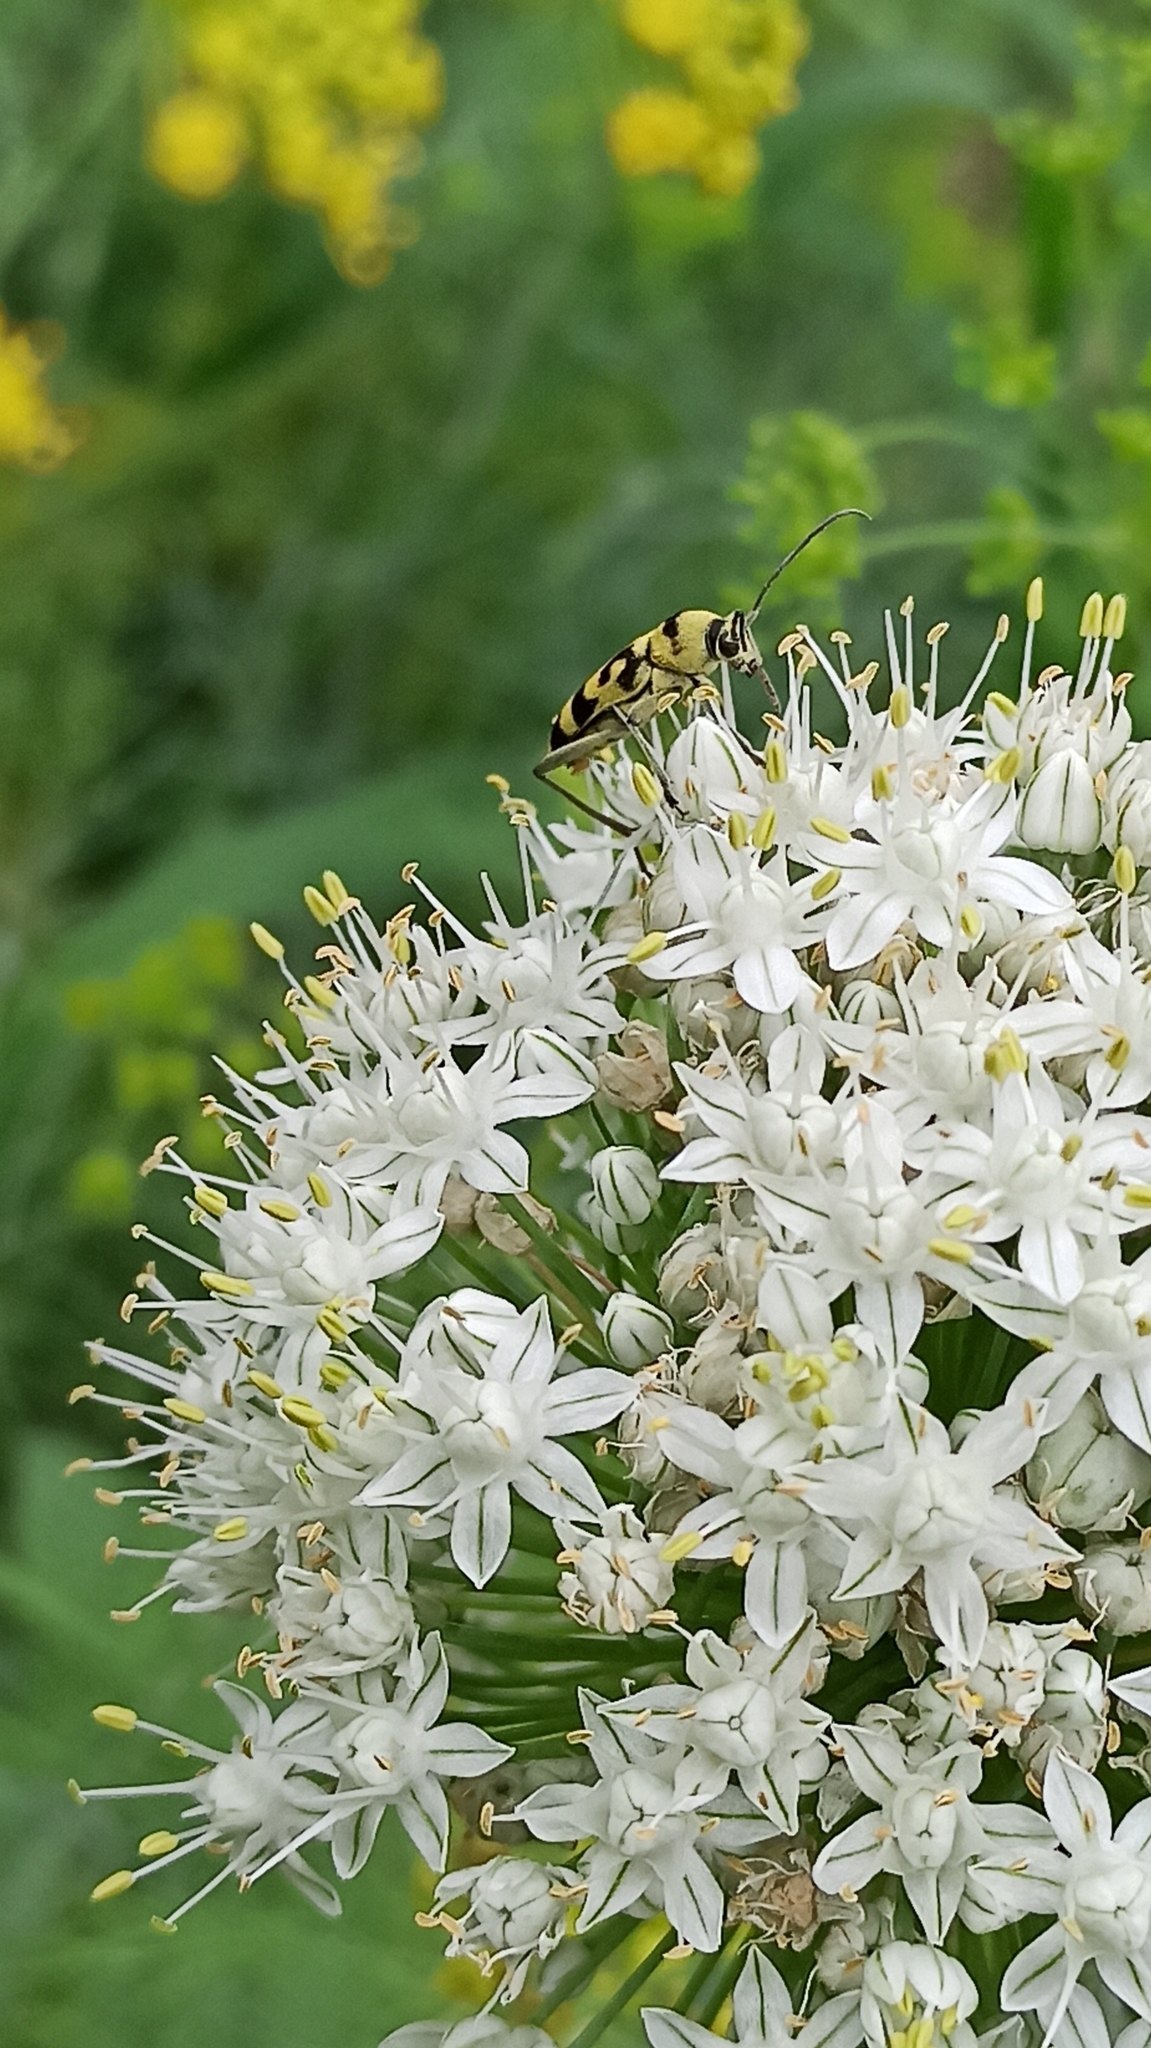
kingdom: Animalia
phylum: Arthropoda
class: Insecta
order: Coleoptera
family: Cerambycidae
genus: Chlorophorus
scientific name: Chlorophorus varius
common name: Grape wood borer
